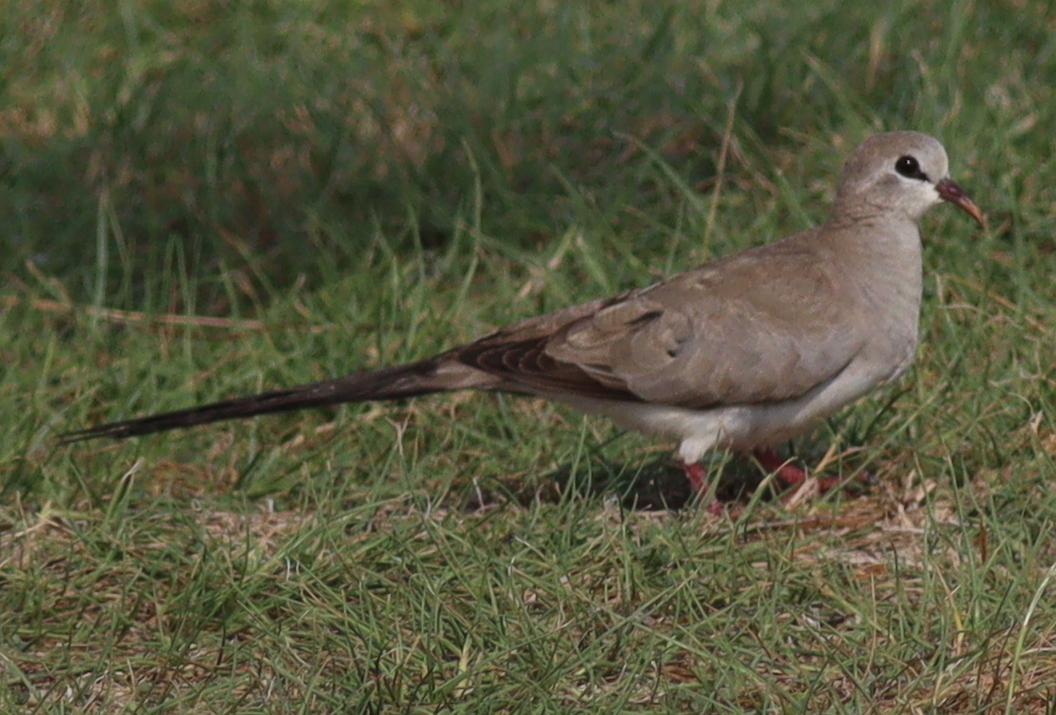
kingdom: Animalia
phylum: Chordata
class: Aves
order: Columbiformes
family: Columbidae
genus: Oena
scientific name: Oena capensis
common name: Namaqua dove
